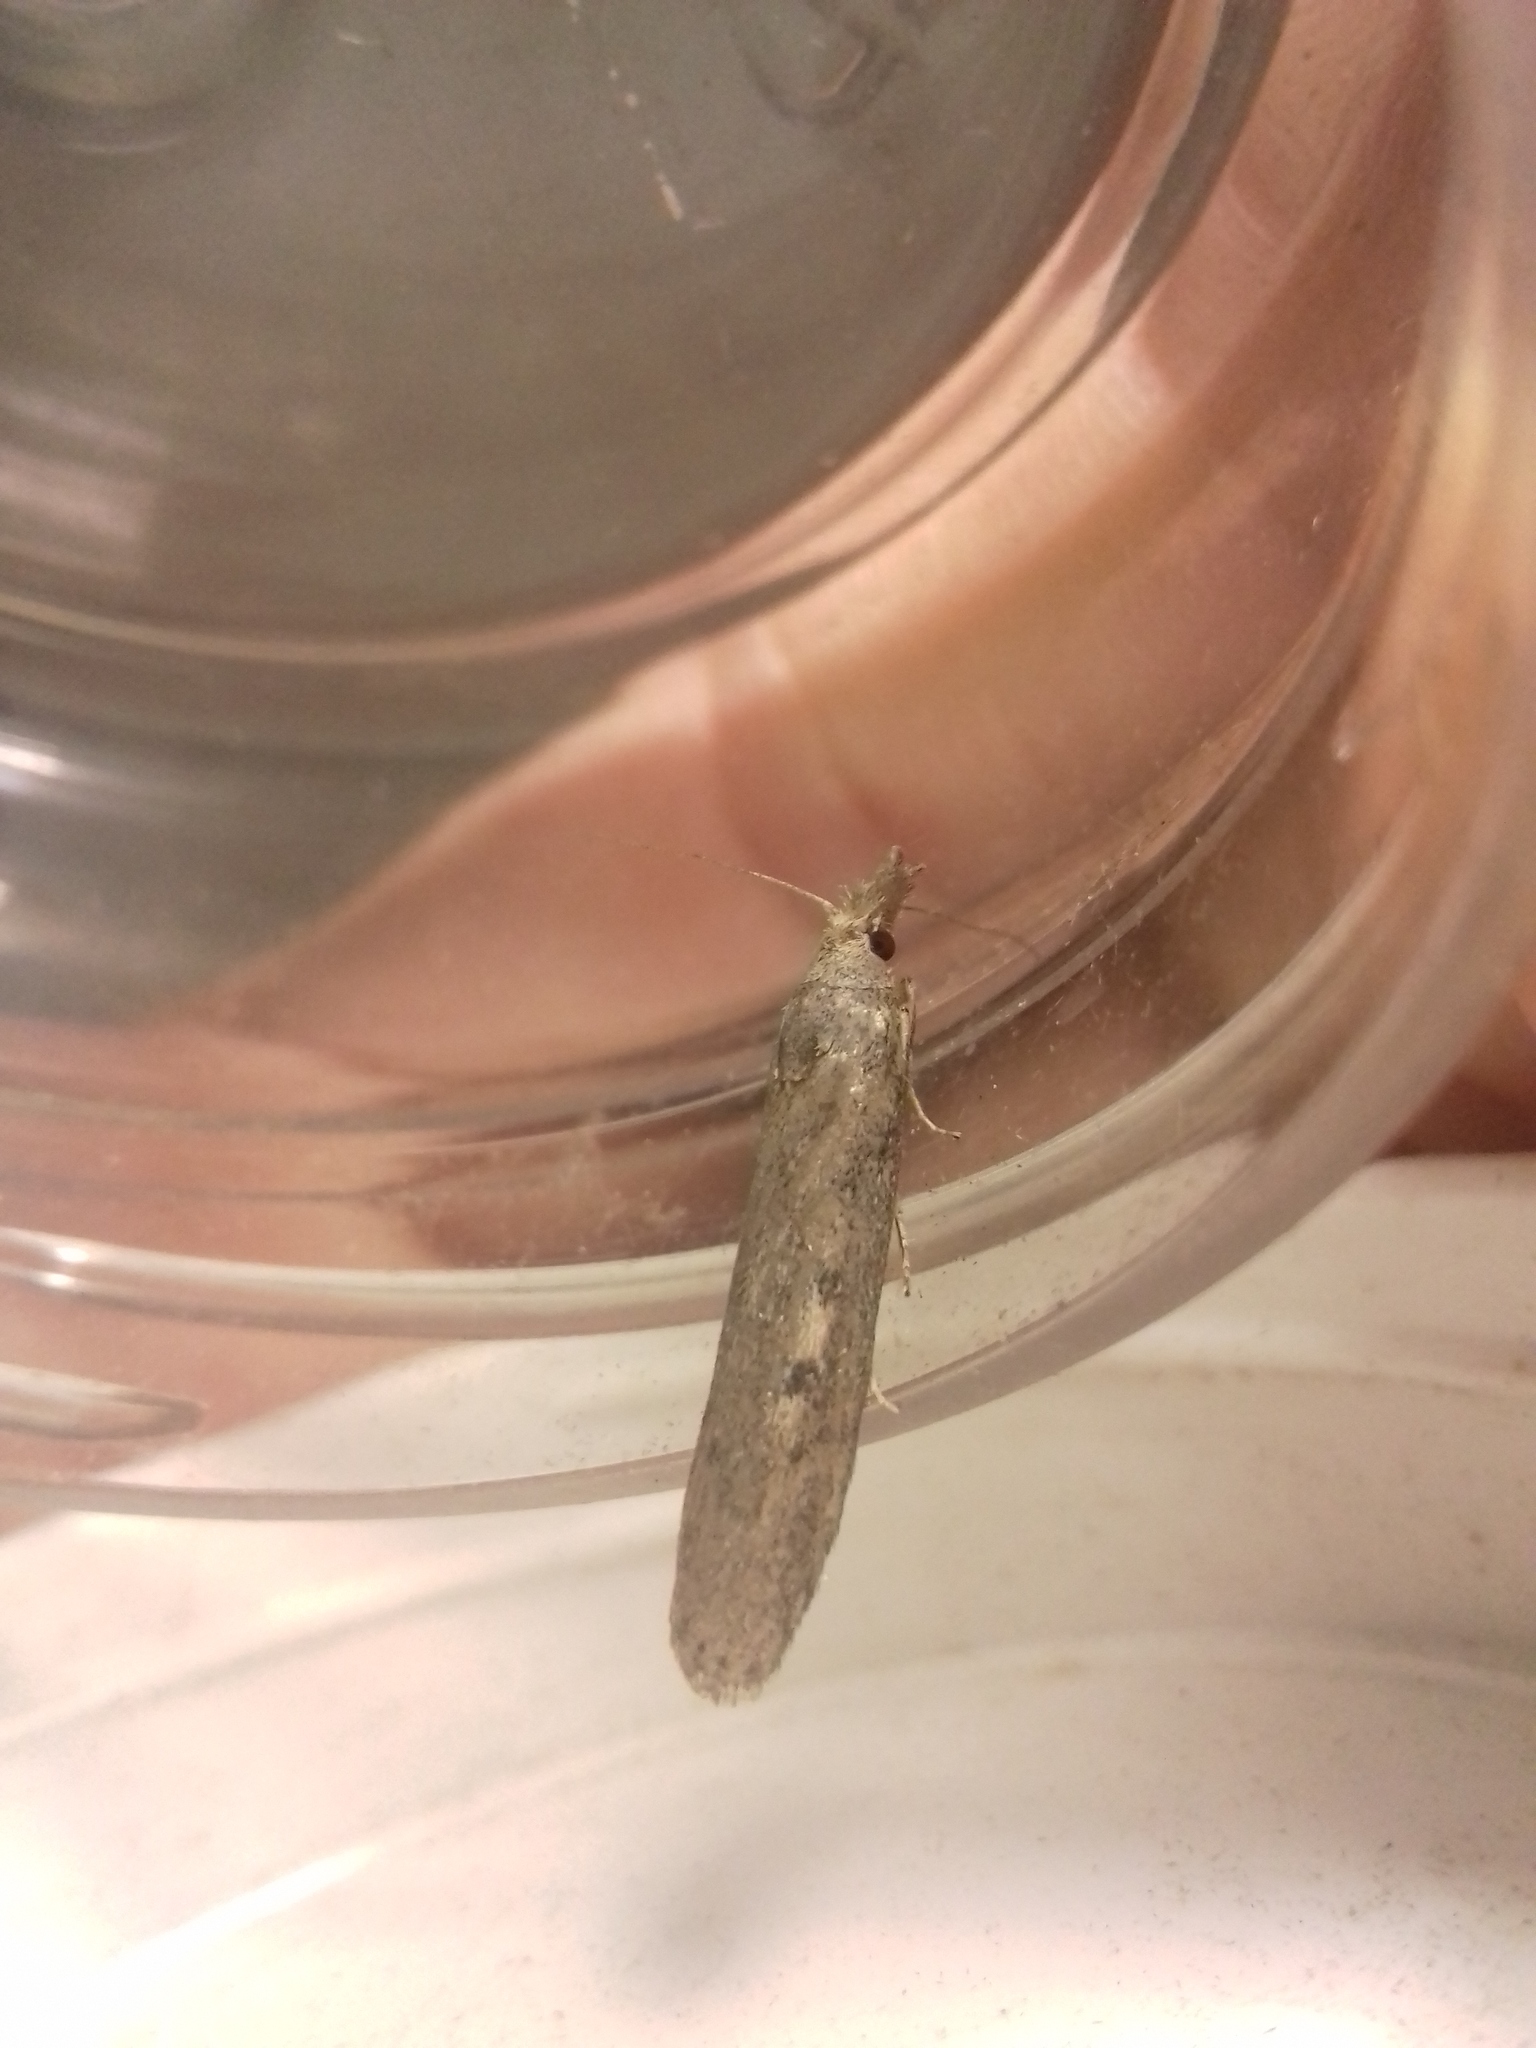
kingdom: Animalia
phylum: Arthropoda
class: Insecta
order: Lepidoptera
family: Pyralidae
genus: Aphomia
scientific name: Aphomia zelleri
